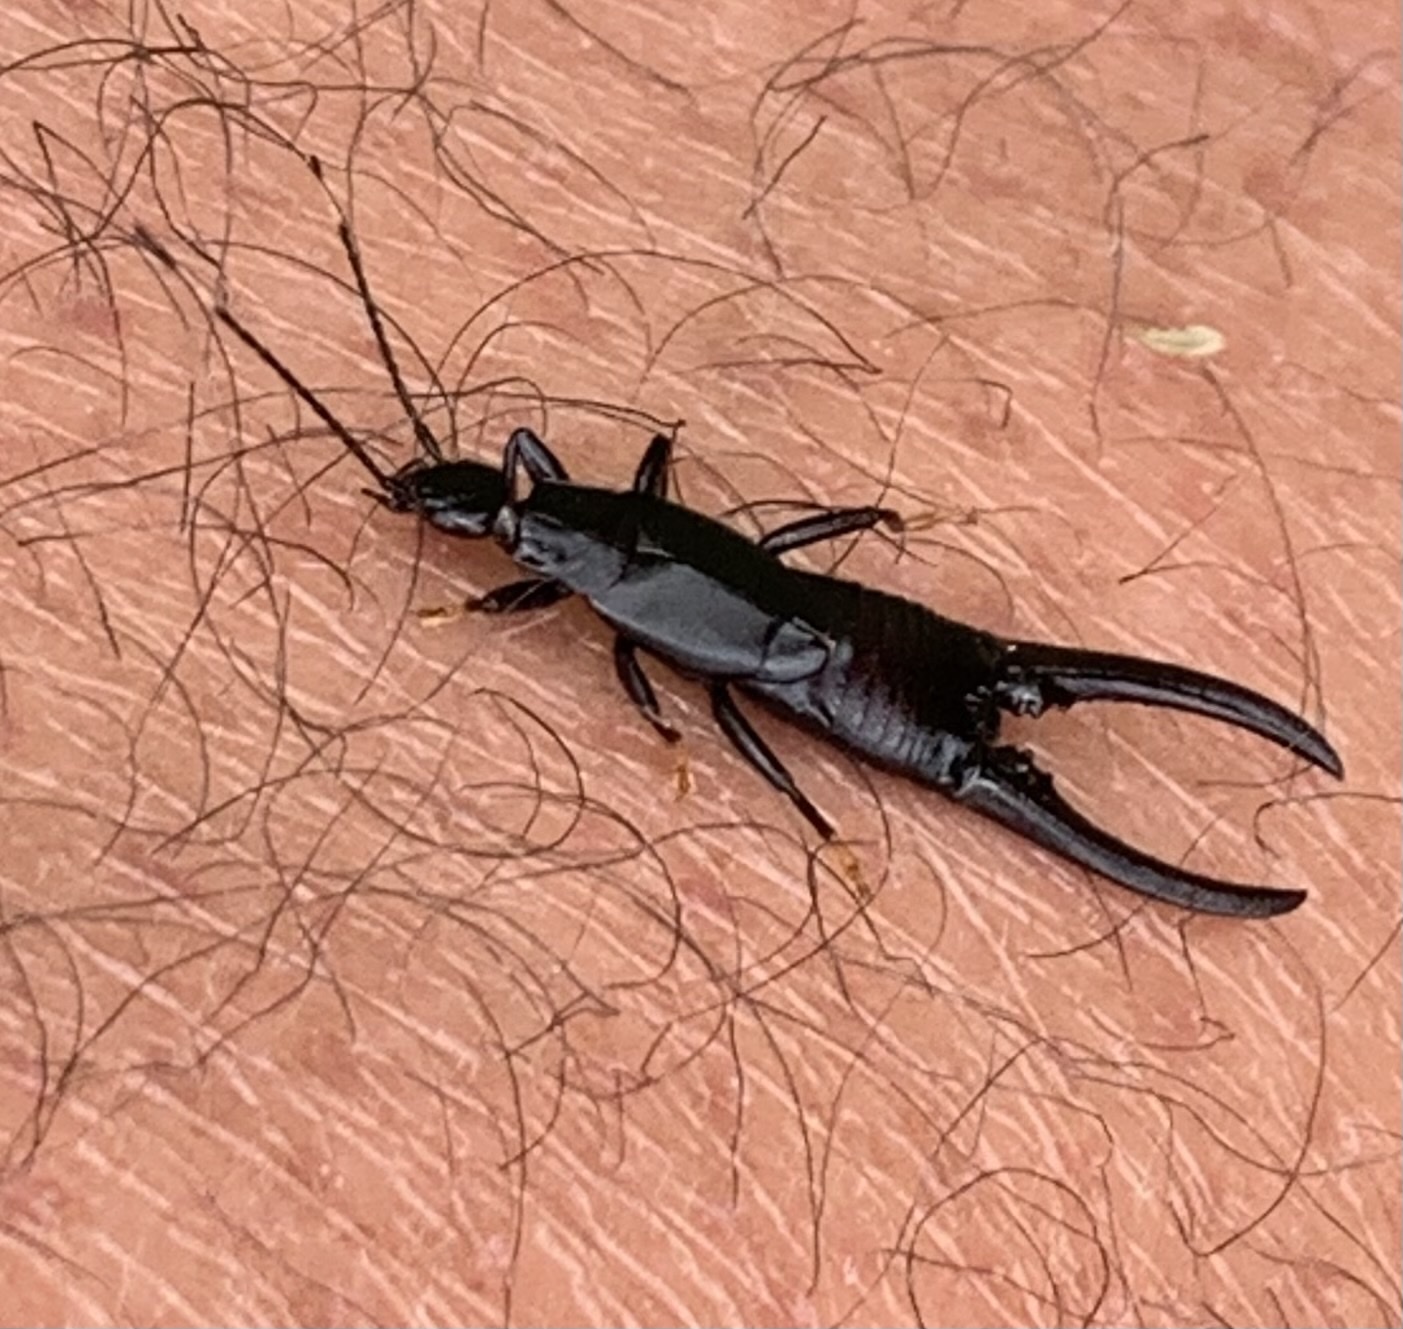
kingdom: Animalia
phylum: Arthropoda
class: Insecta
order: Dermaptera
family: Chelisochidae
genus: Chelisoches
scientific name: Chelisoches morio
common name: Black earwig
